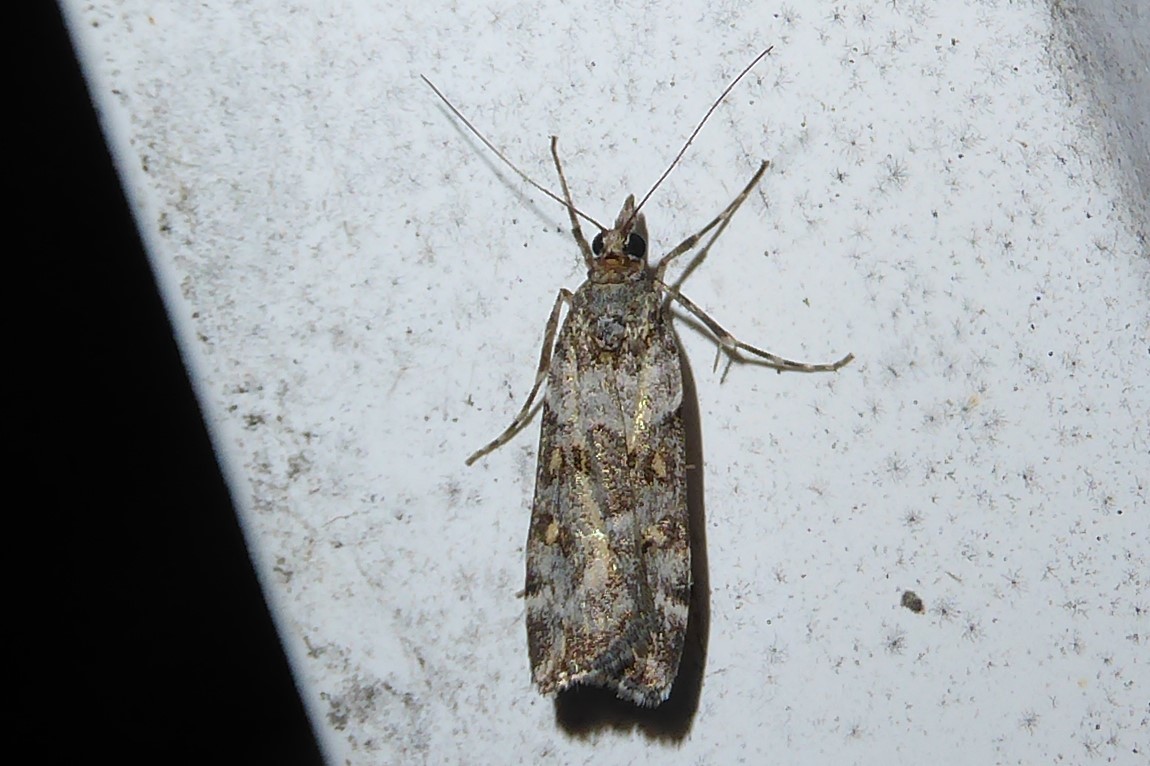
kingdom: Animalia
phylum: Arthropoda
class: Insecta
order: Lepidoptera
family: Crambidae
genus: Eudonia
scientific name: Eudonia diphtheralis
